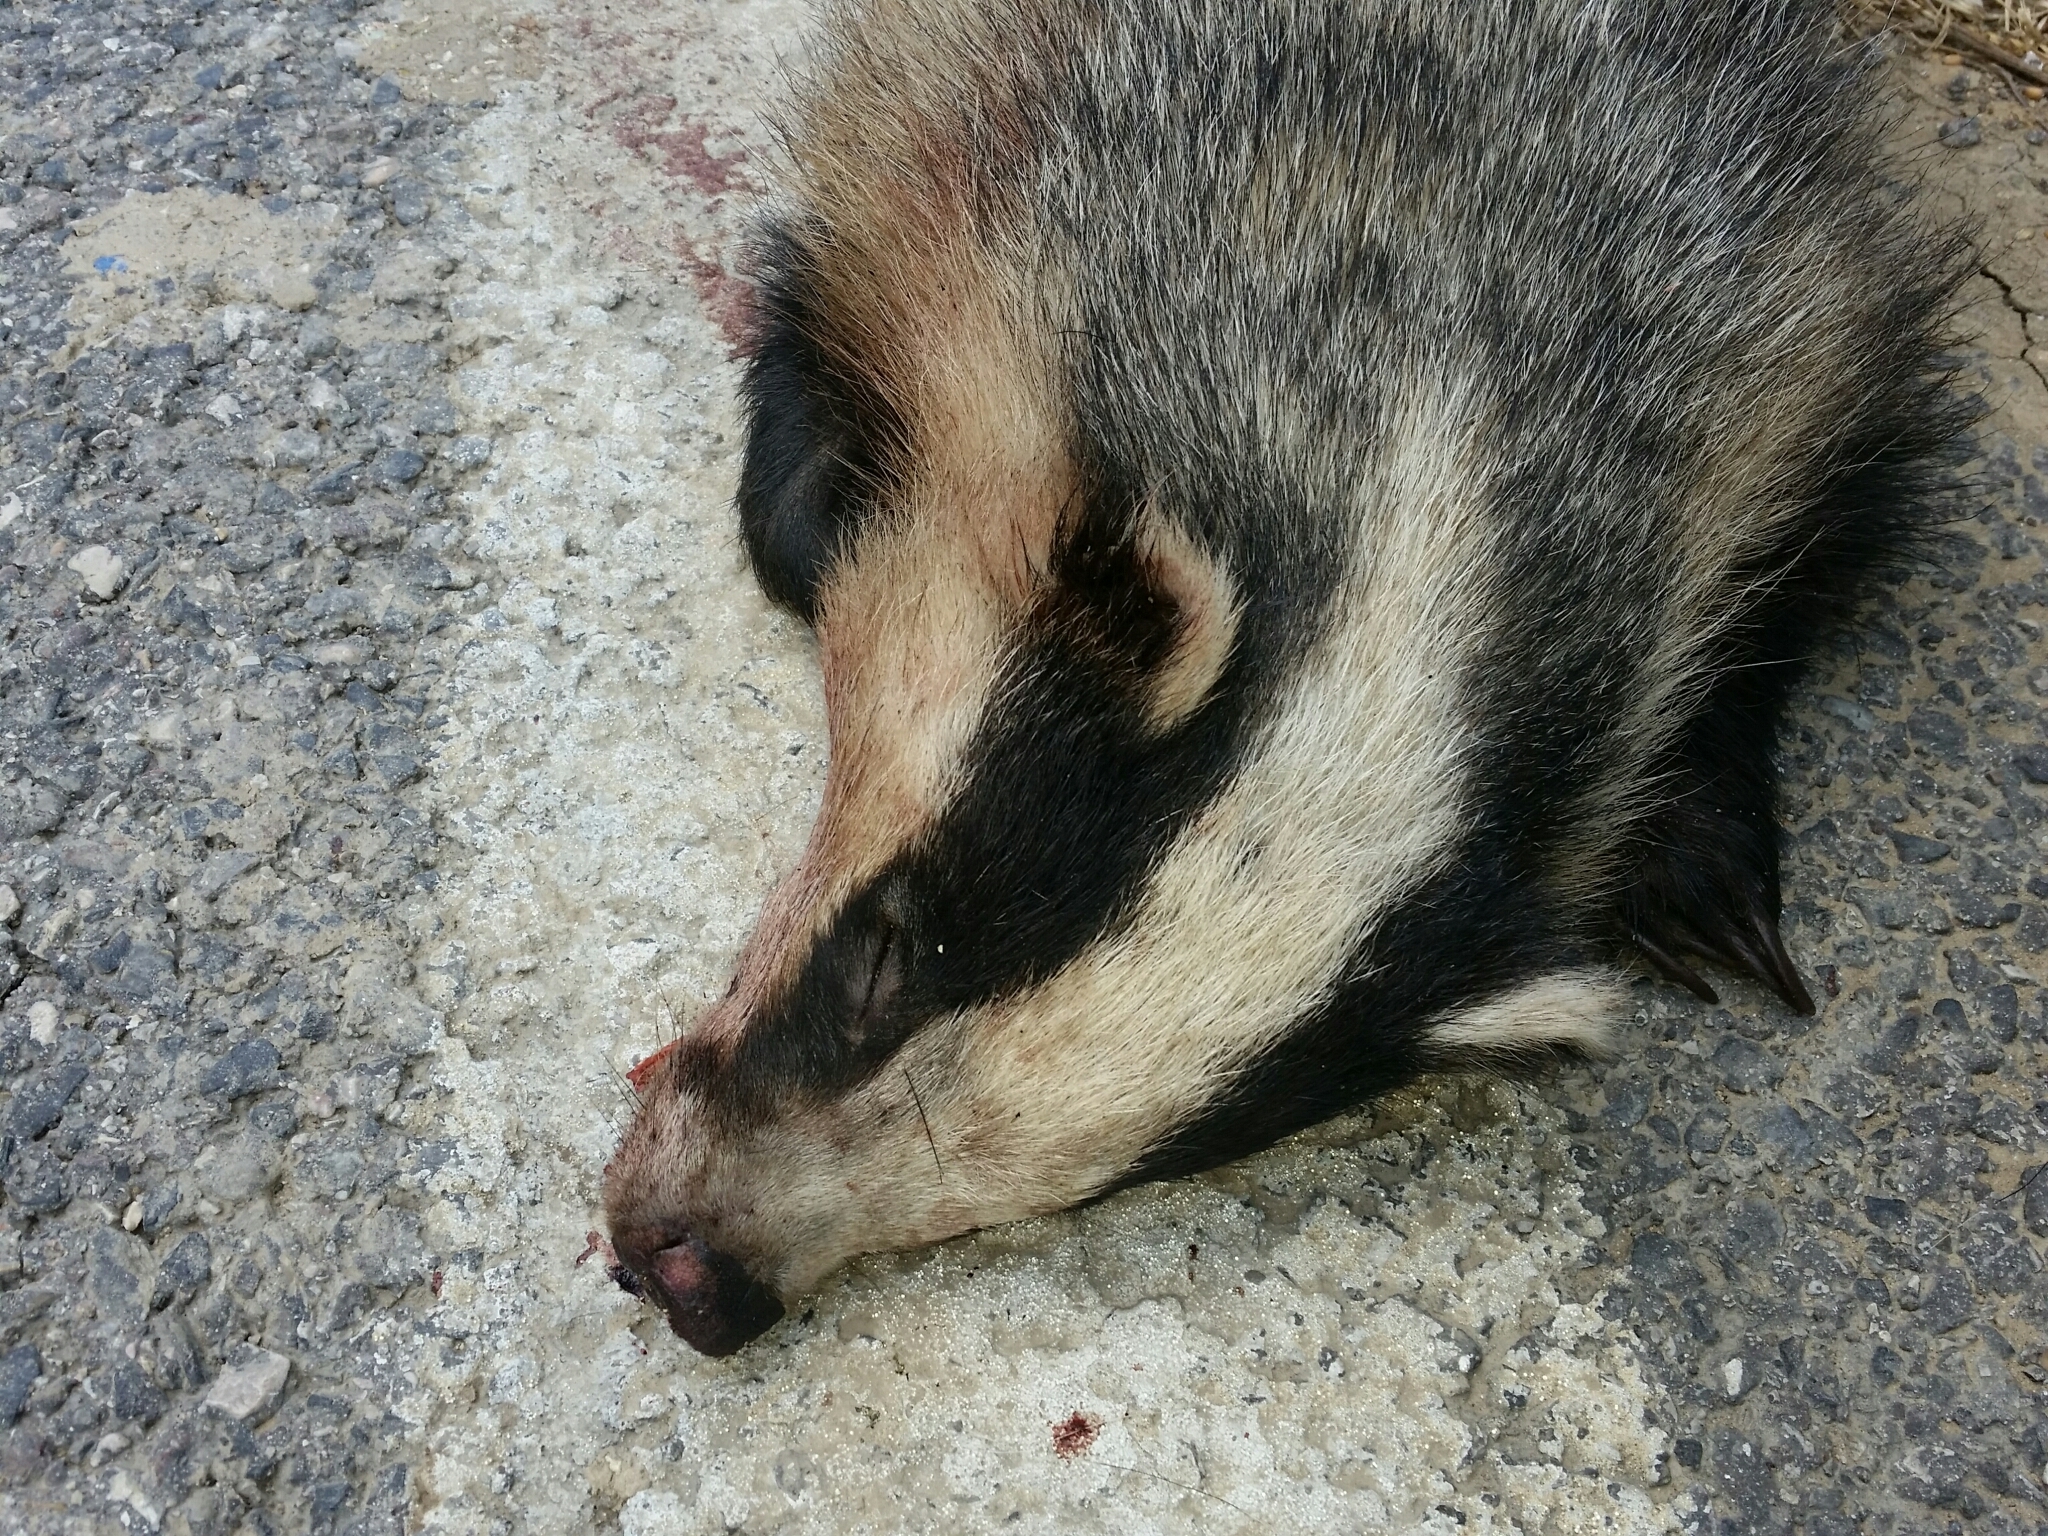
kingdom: Animalia
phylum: Chordata
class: Mammalia
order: Carnivora
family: Mustelidae
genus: Meles
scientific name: Meles meles
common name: Eurasian badger
